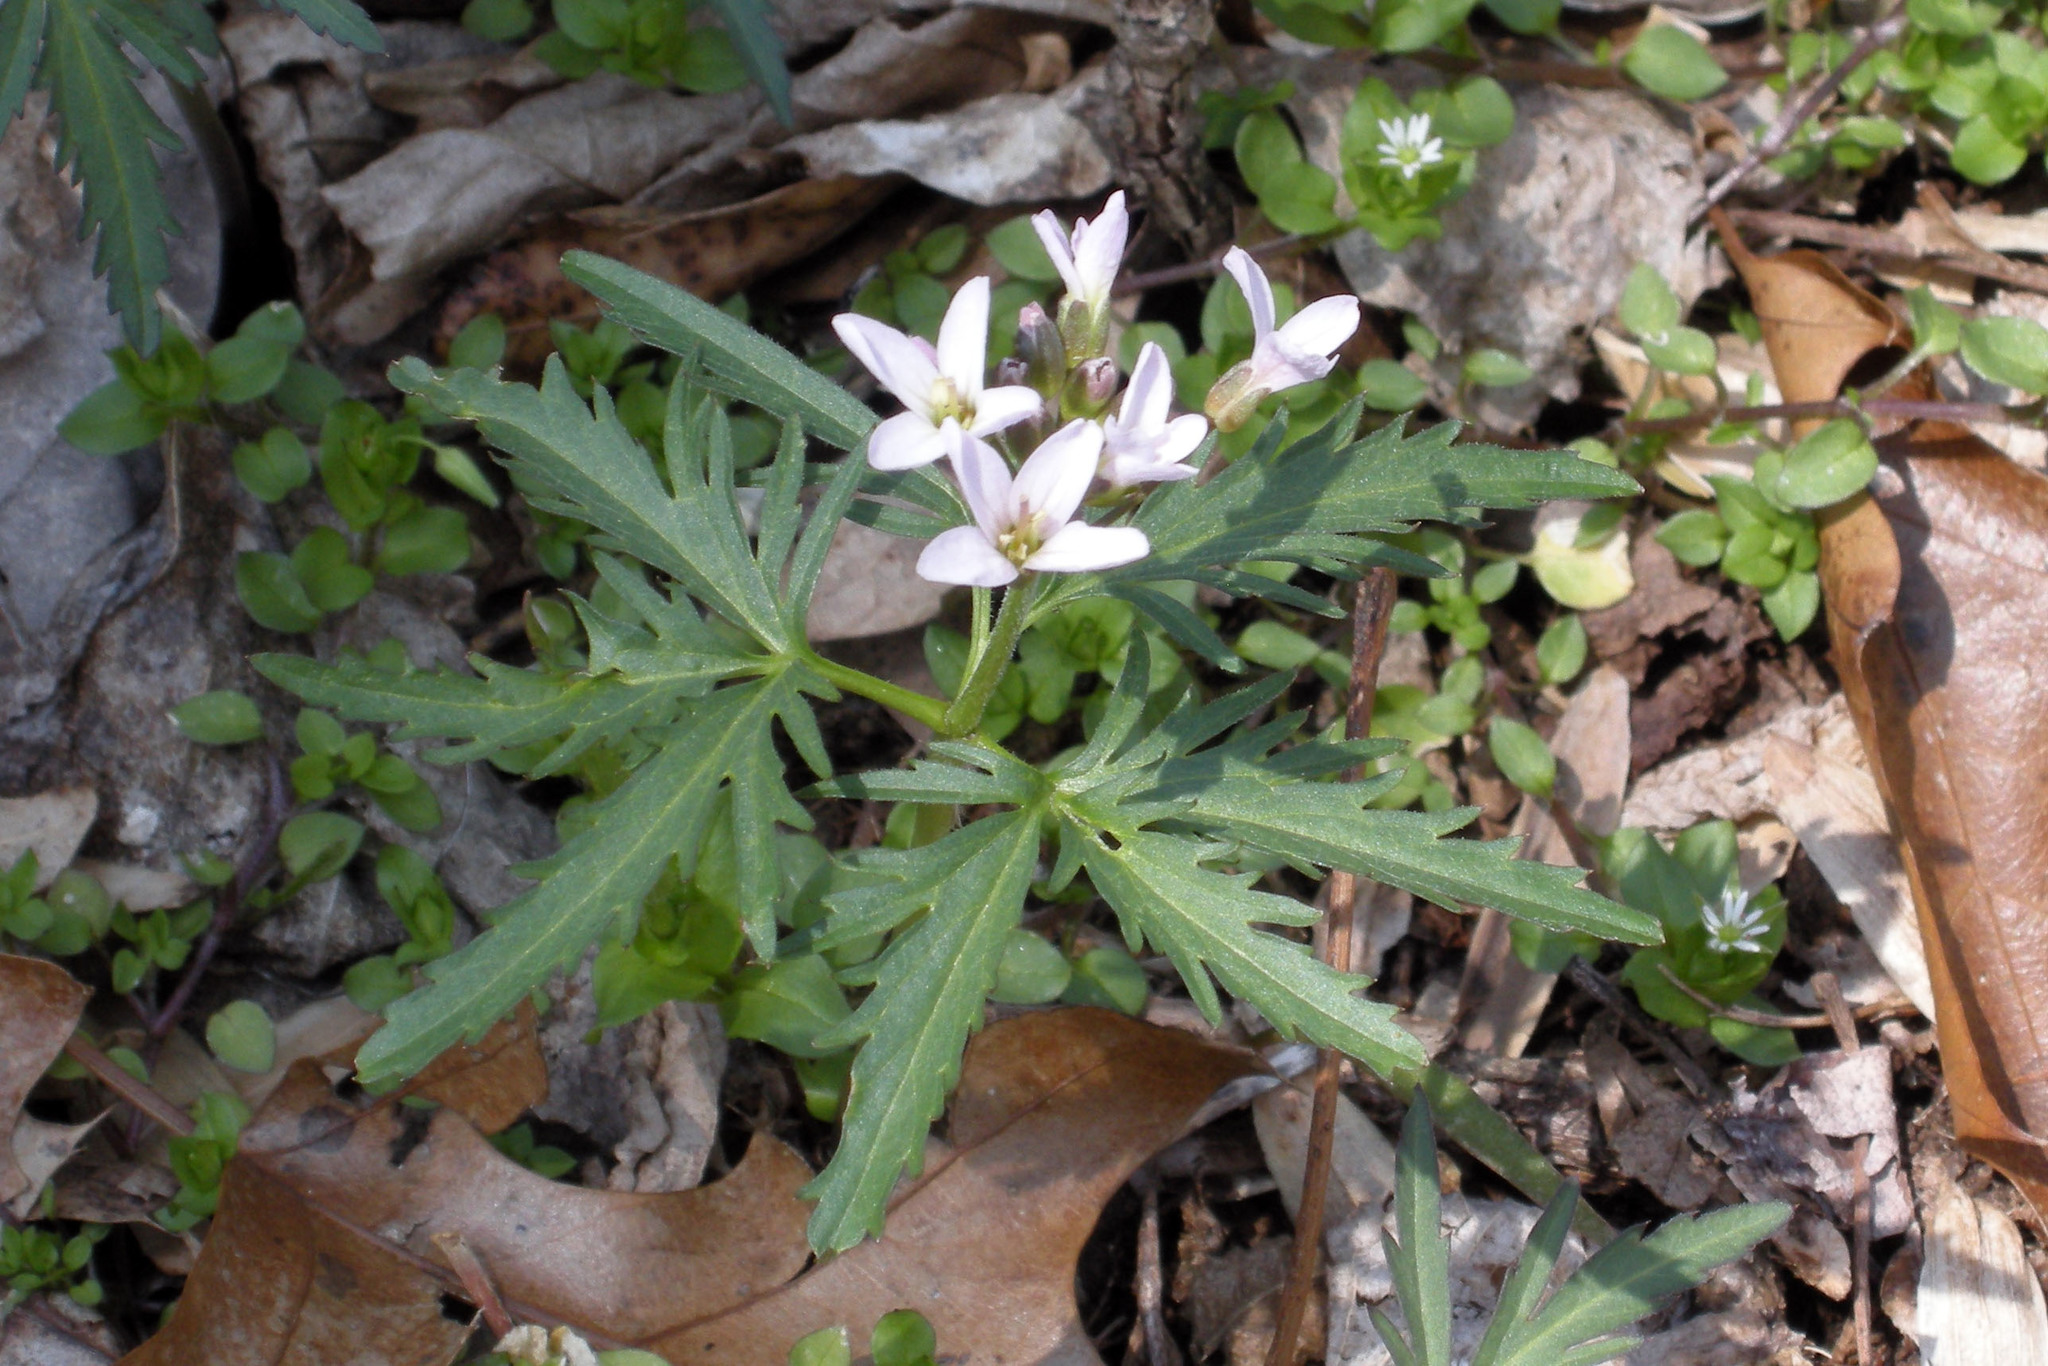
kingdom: Plantae
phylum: Tracheophyta
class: Magnoliopsida
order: Brassicales
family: Brassicaceae
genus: Cardamine
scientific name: Cardamine concatenata
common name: Cut-leaf toothcup
